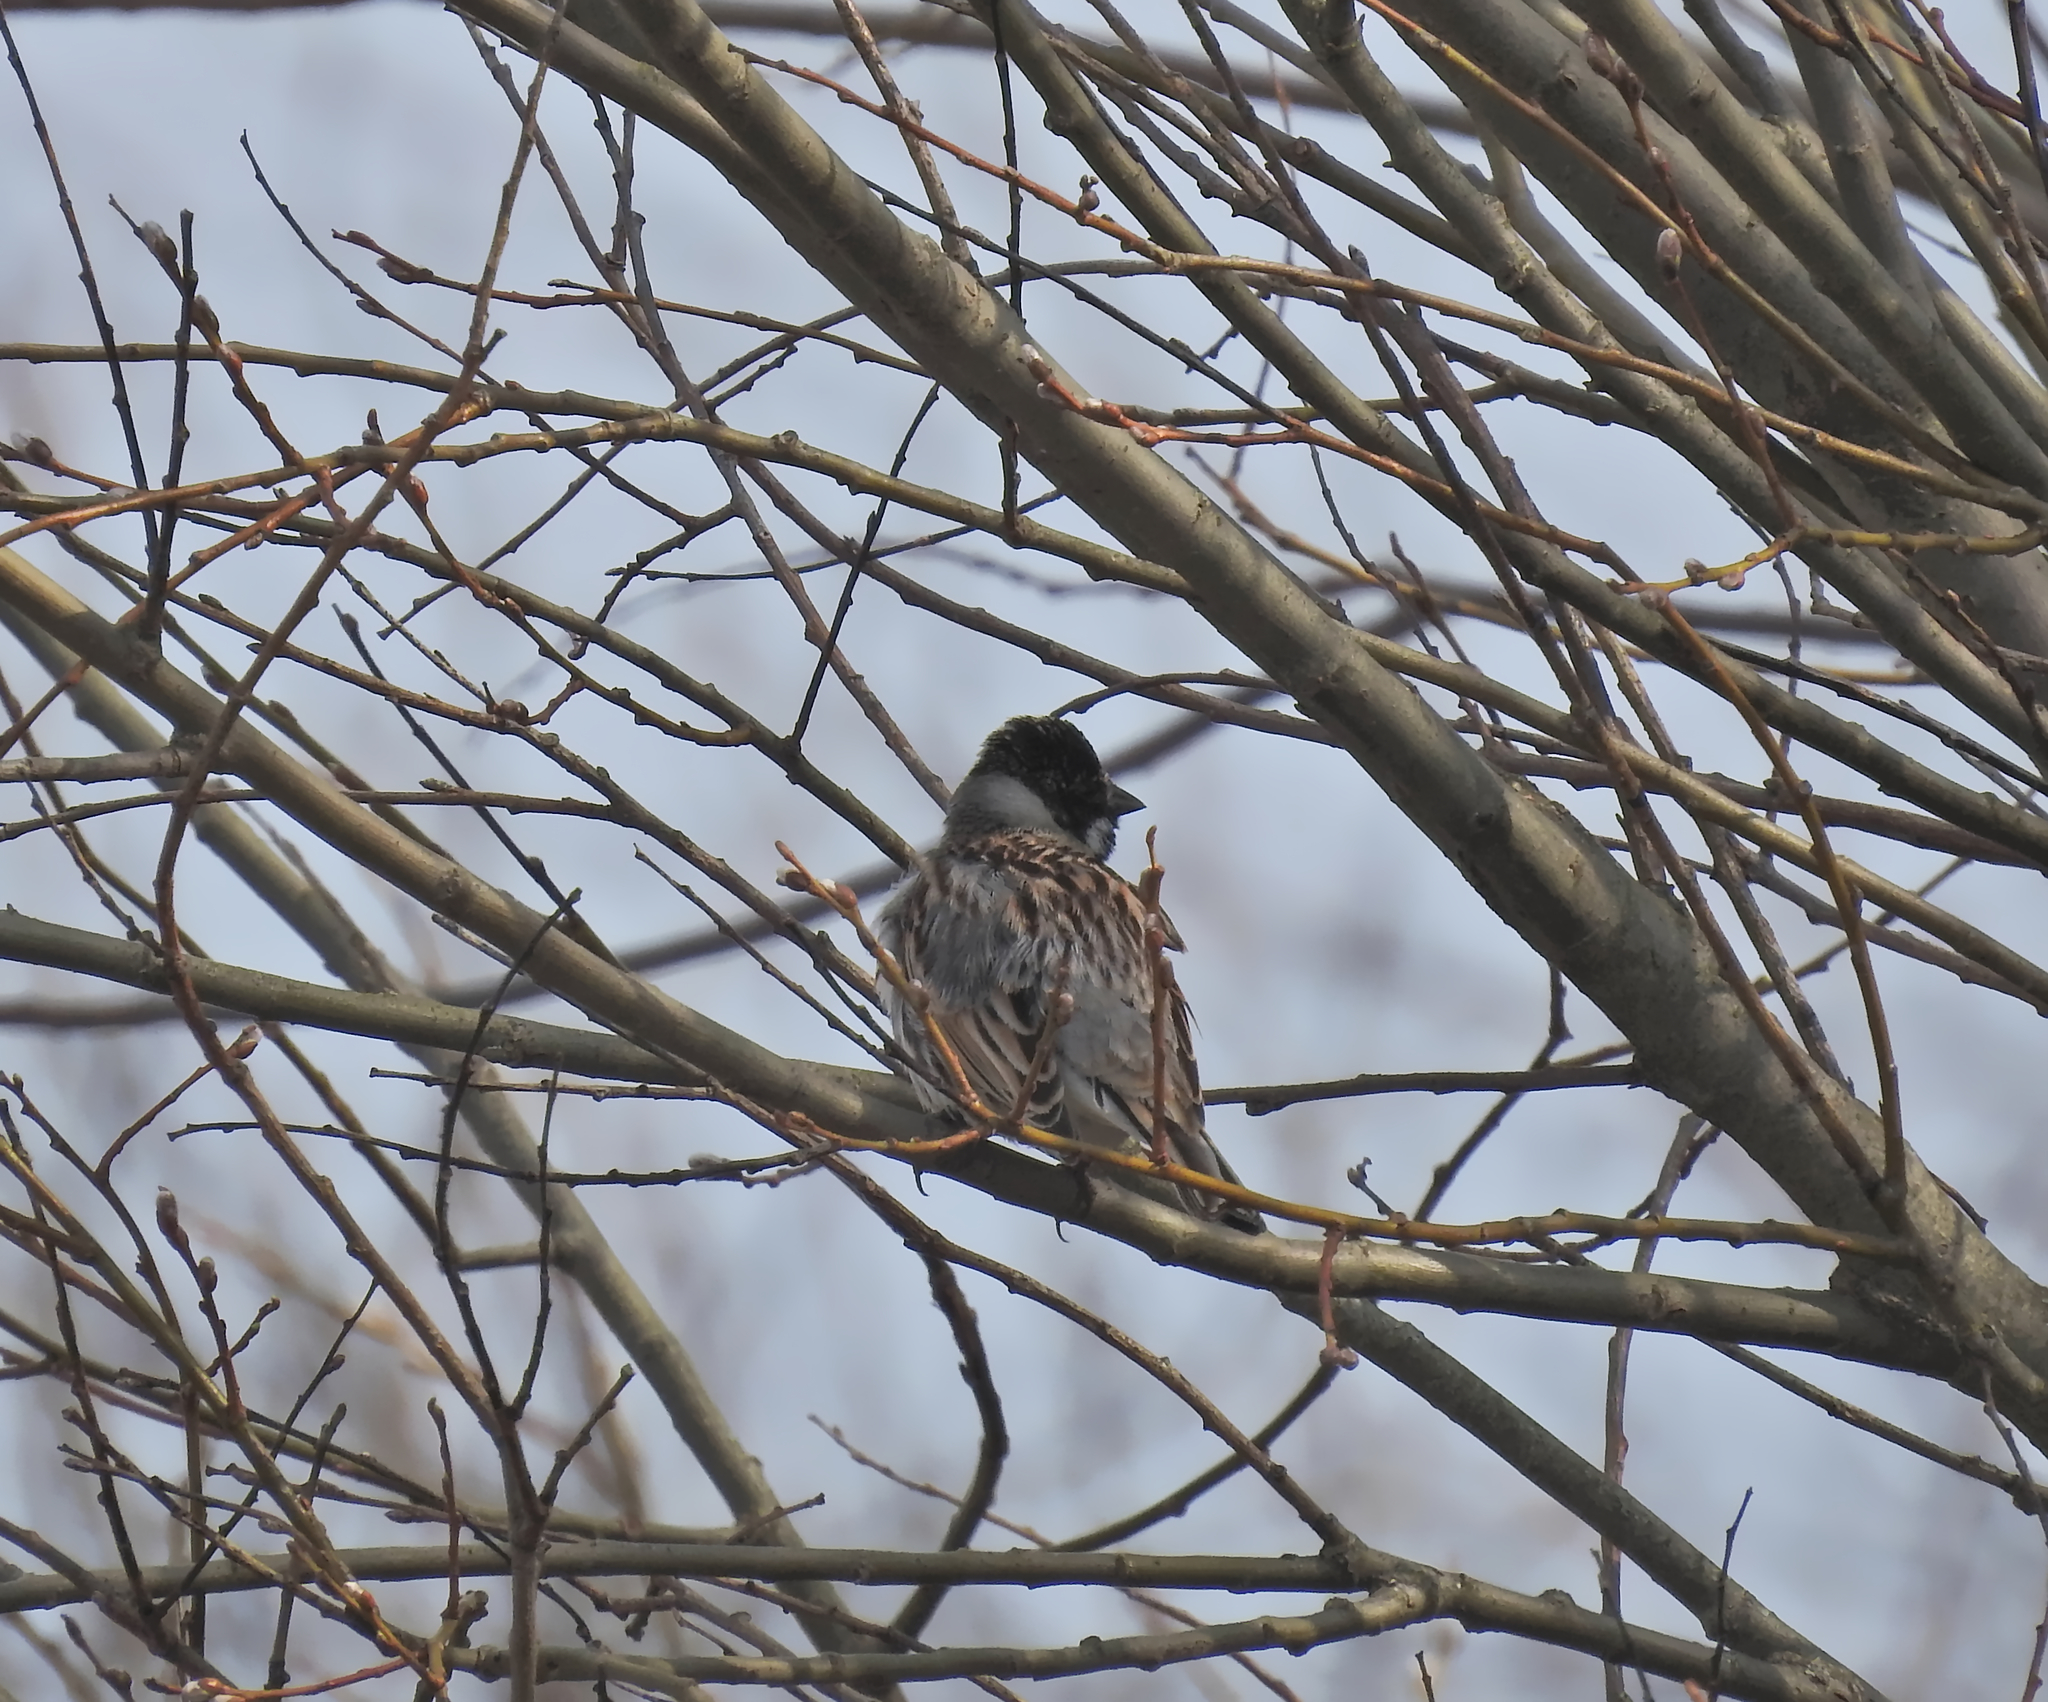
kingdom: Animalia
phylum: Chordata
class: Aves
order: Passeriformes
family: Emberizidae
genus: Emberiza
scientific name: Emberiza schoeniclus
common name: Reed bunting
